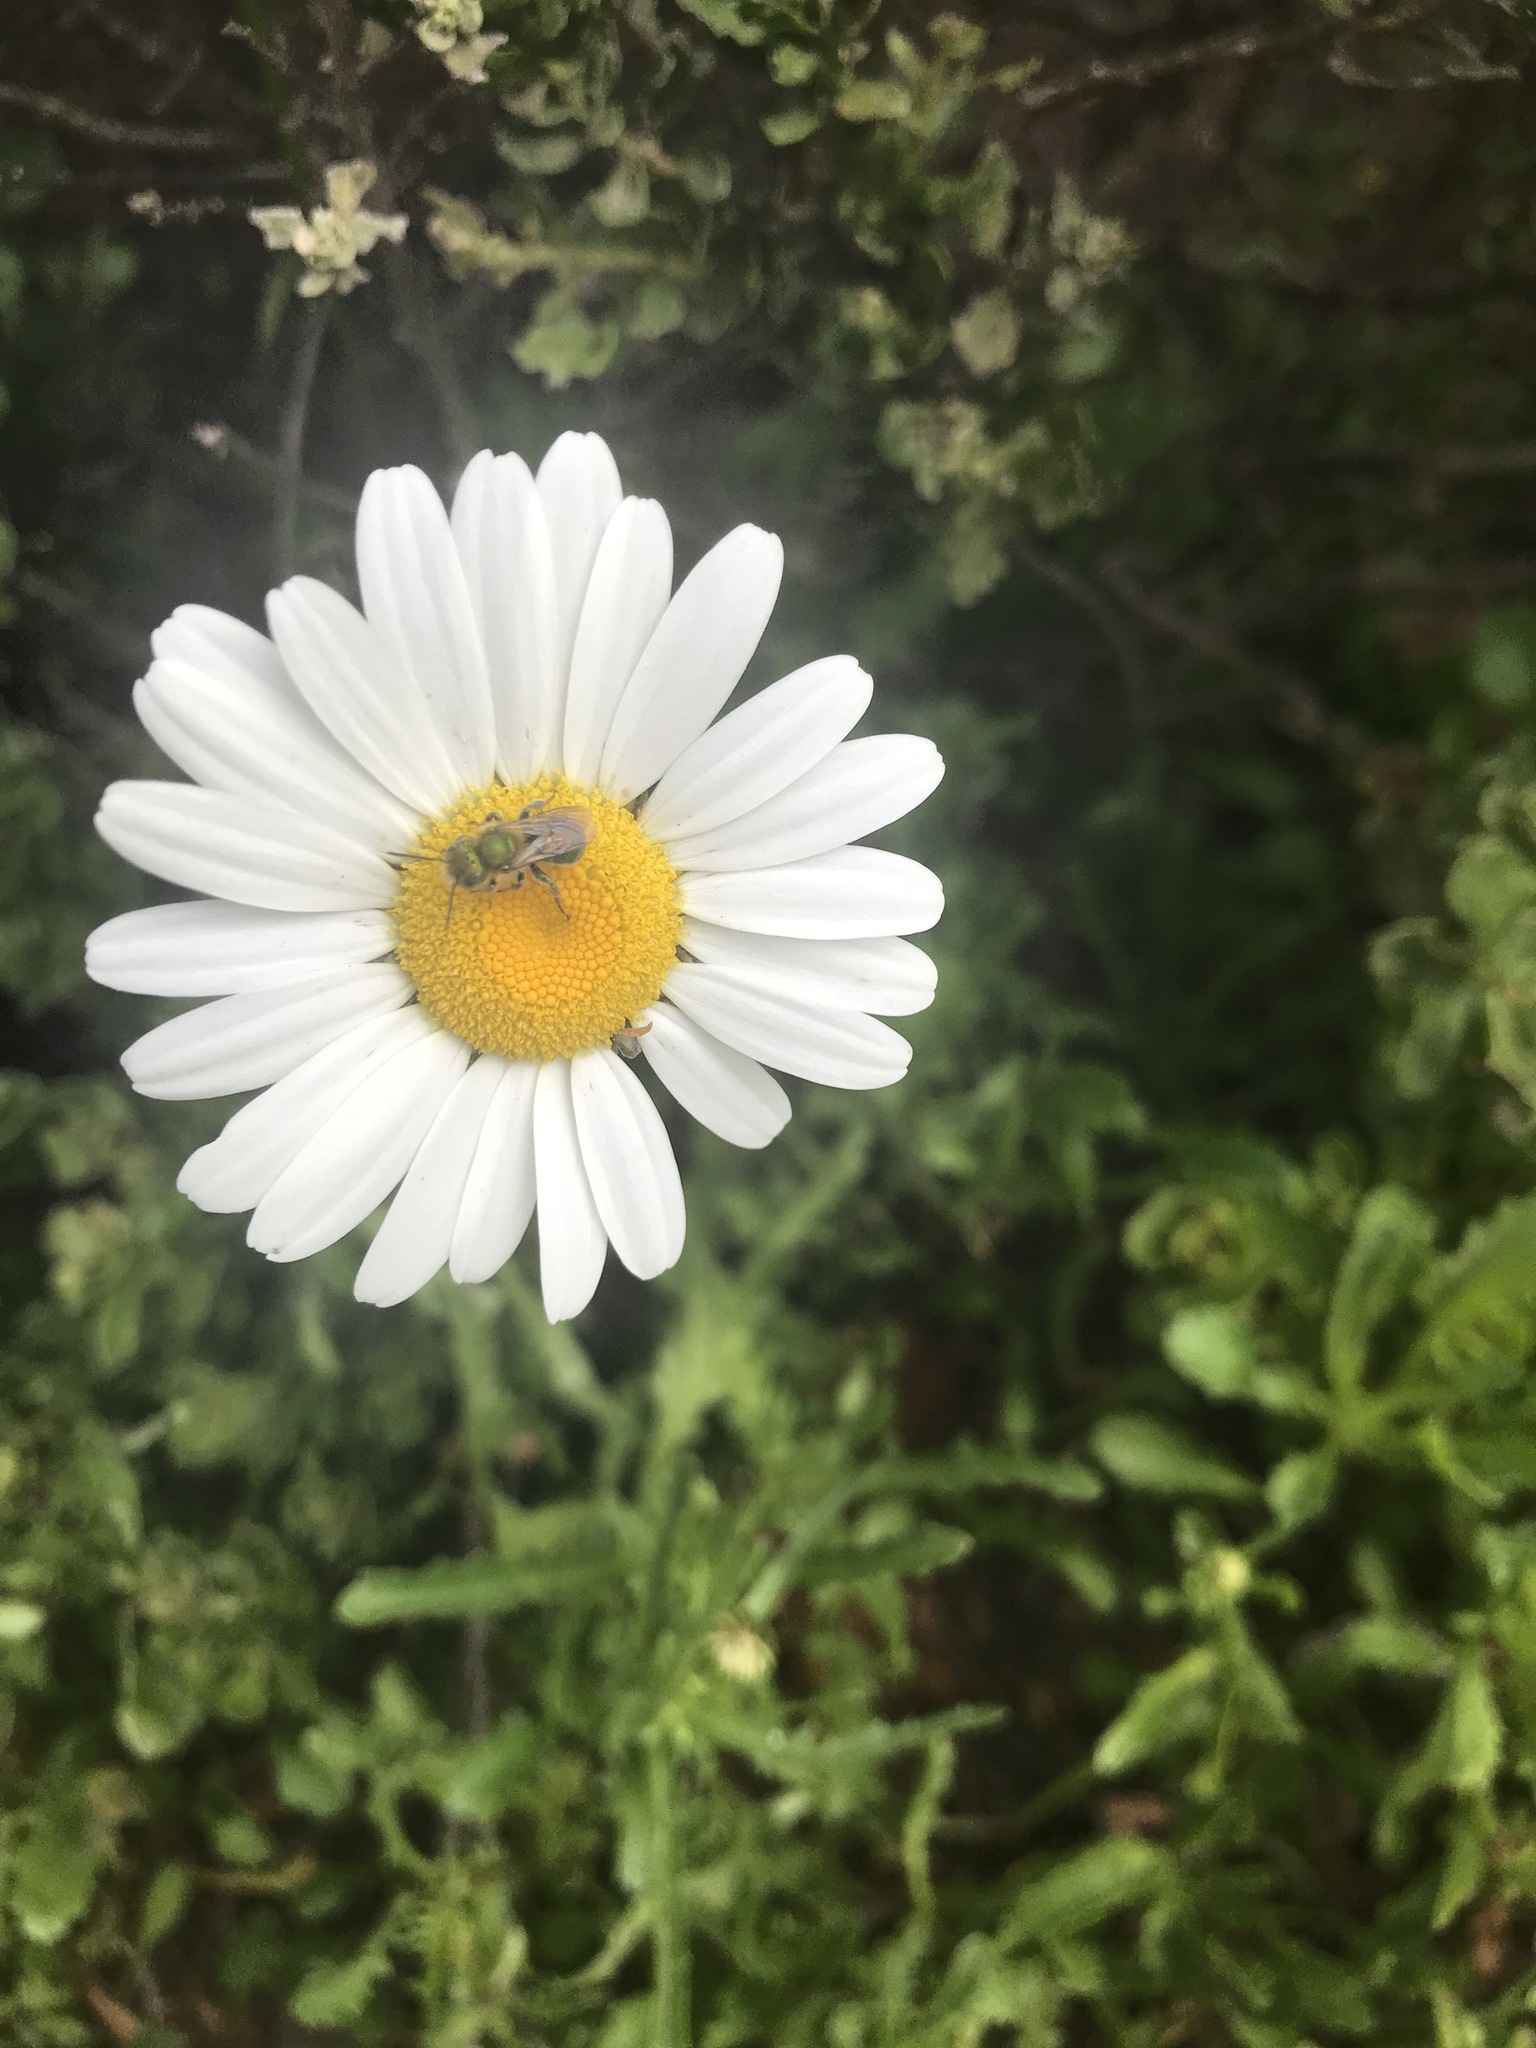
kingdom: Plantae
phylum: Tracheophyta
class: Magnoliopsida
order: Asterales
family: Asteraceae
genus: Leucanthemum
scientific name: Leucanthemum vulgare
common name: Oxeye daisy
